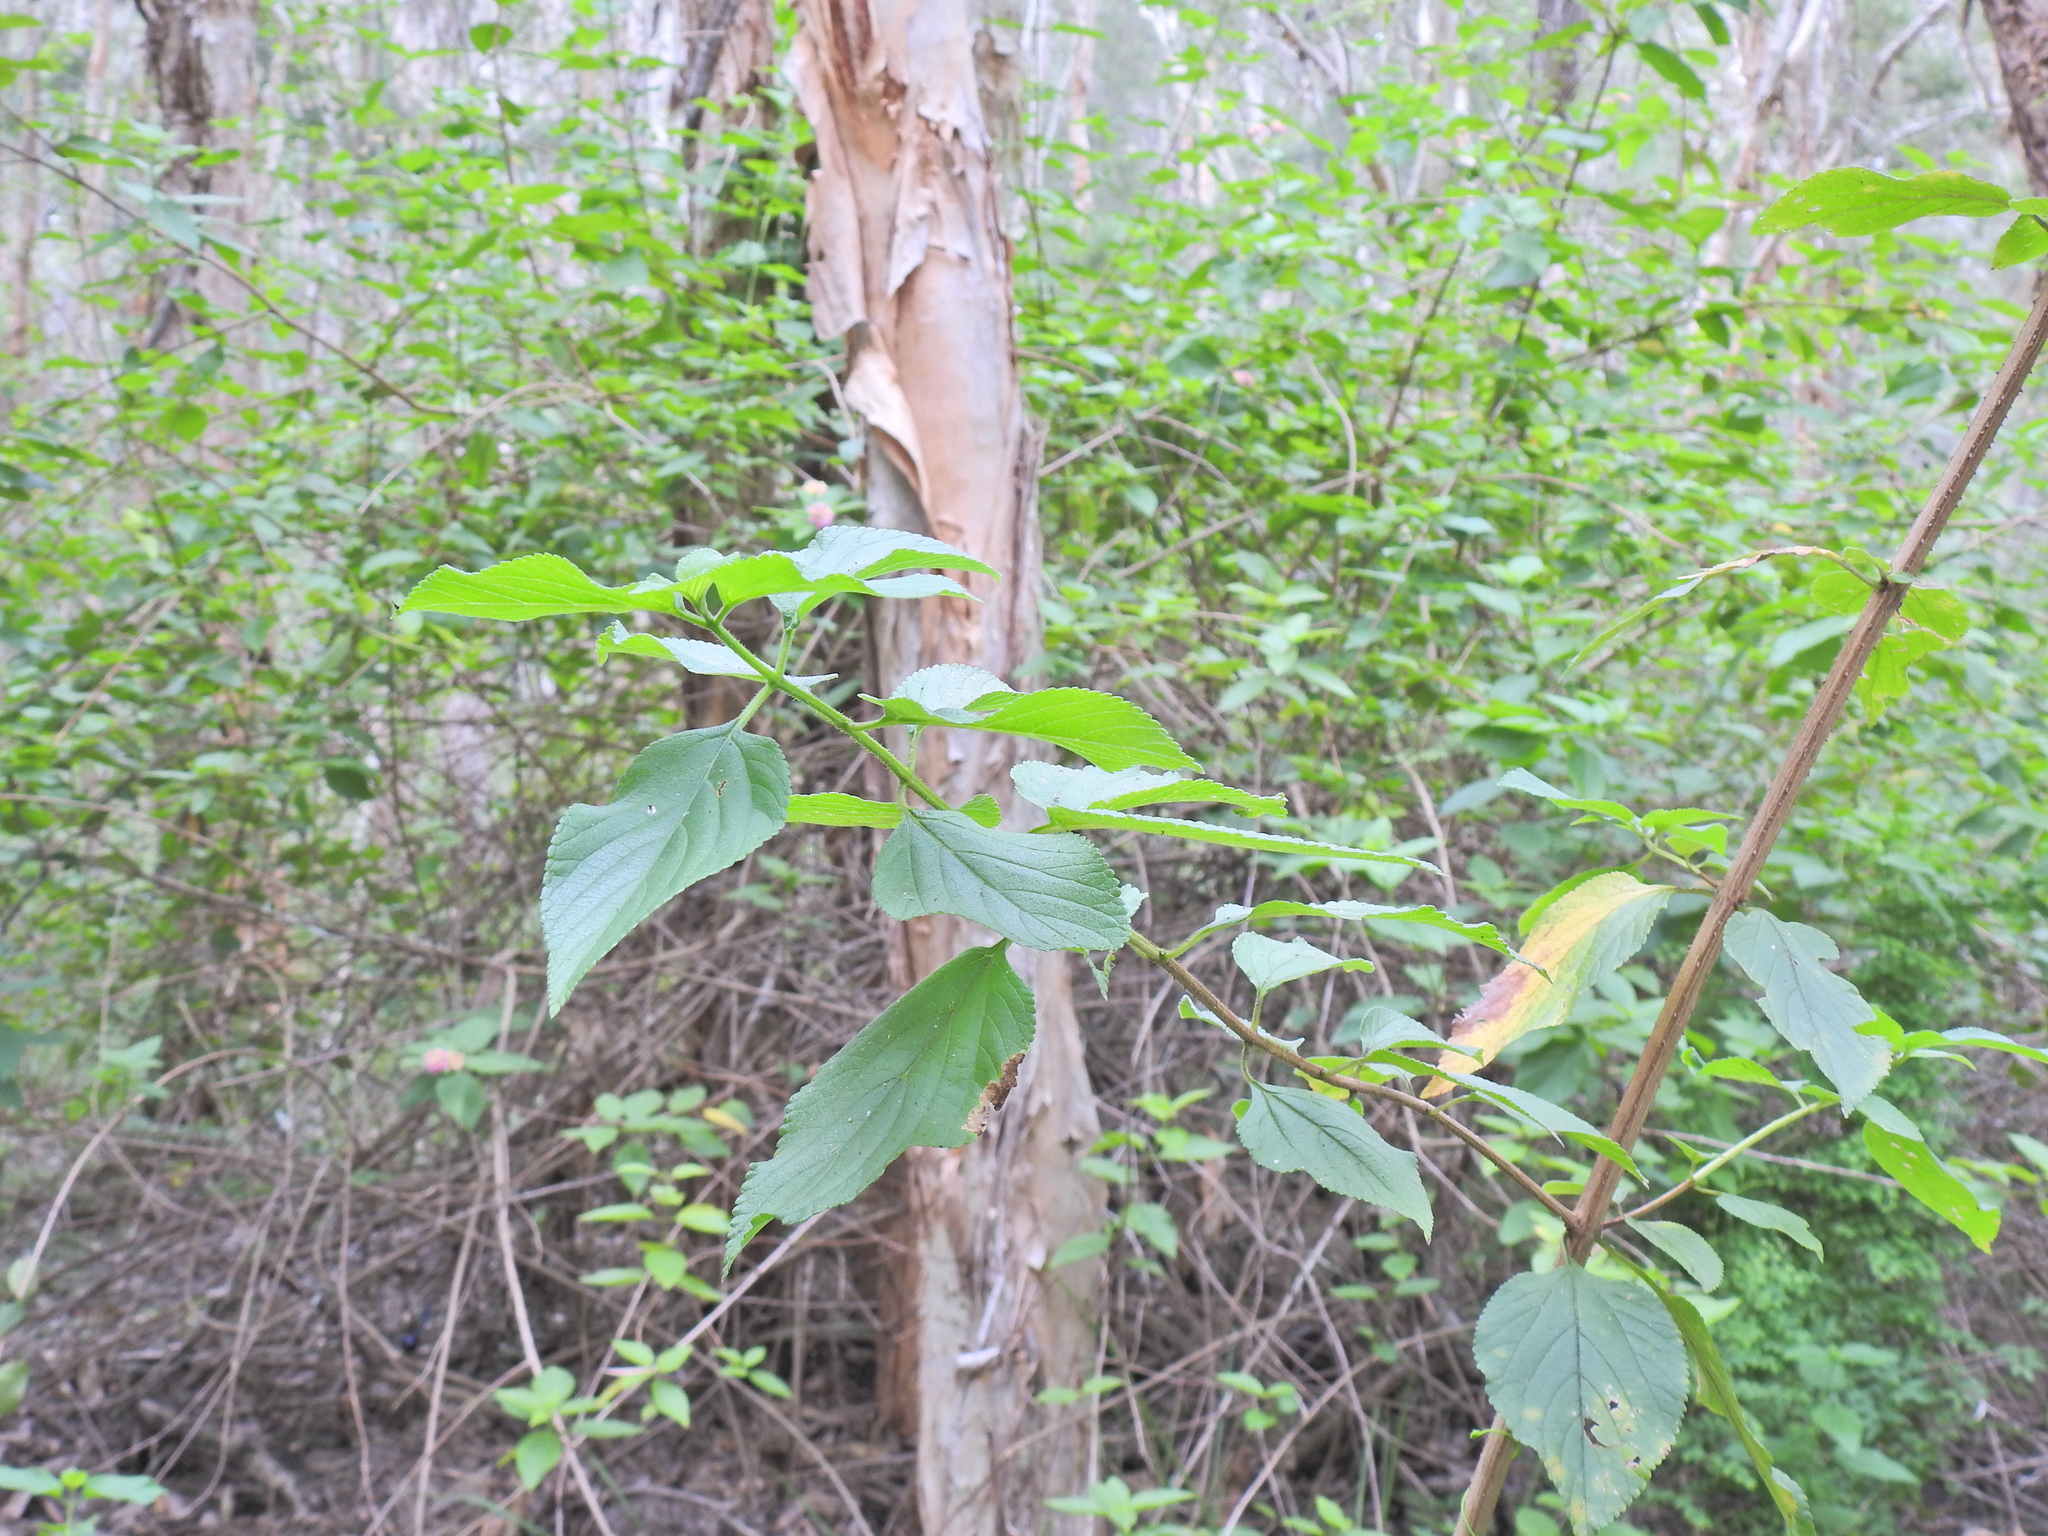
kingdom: Plantae
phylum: Tracheophyta
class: Magnoliopsida
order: Lamiales
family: Verbenaceae
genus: Lantana
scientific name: Lantana camara
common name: Lantana
